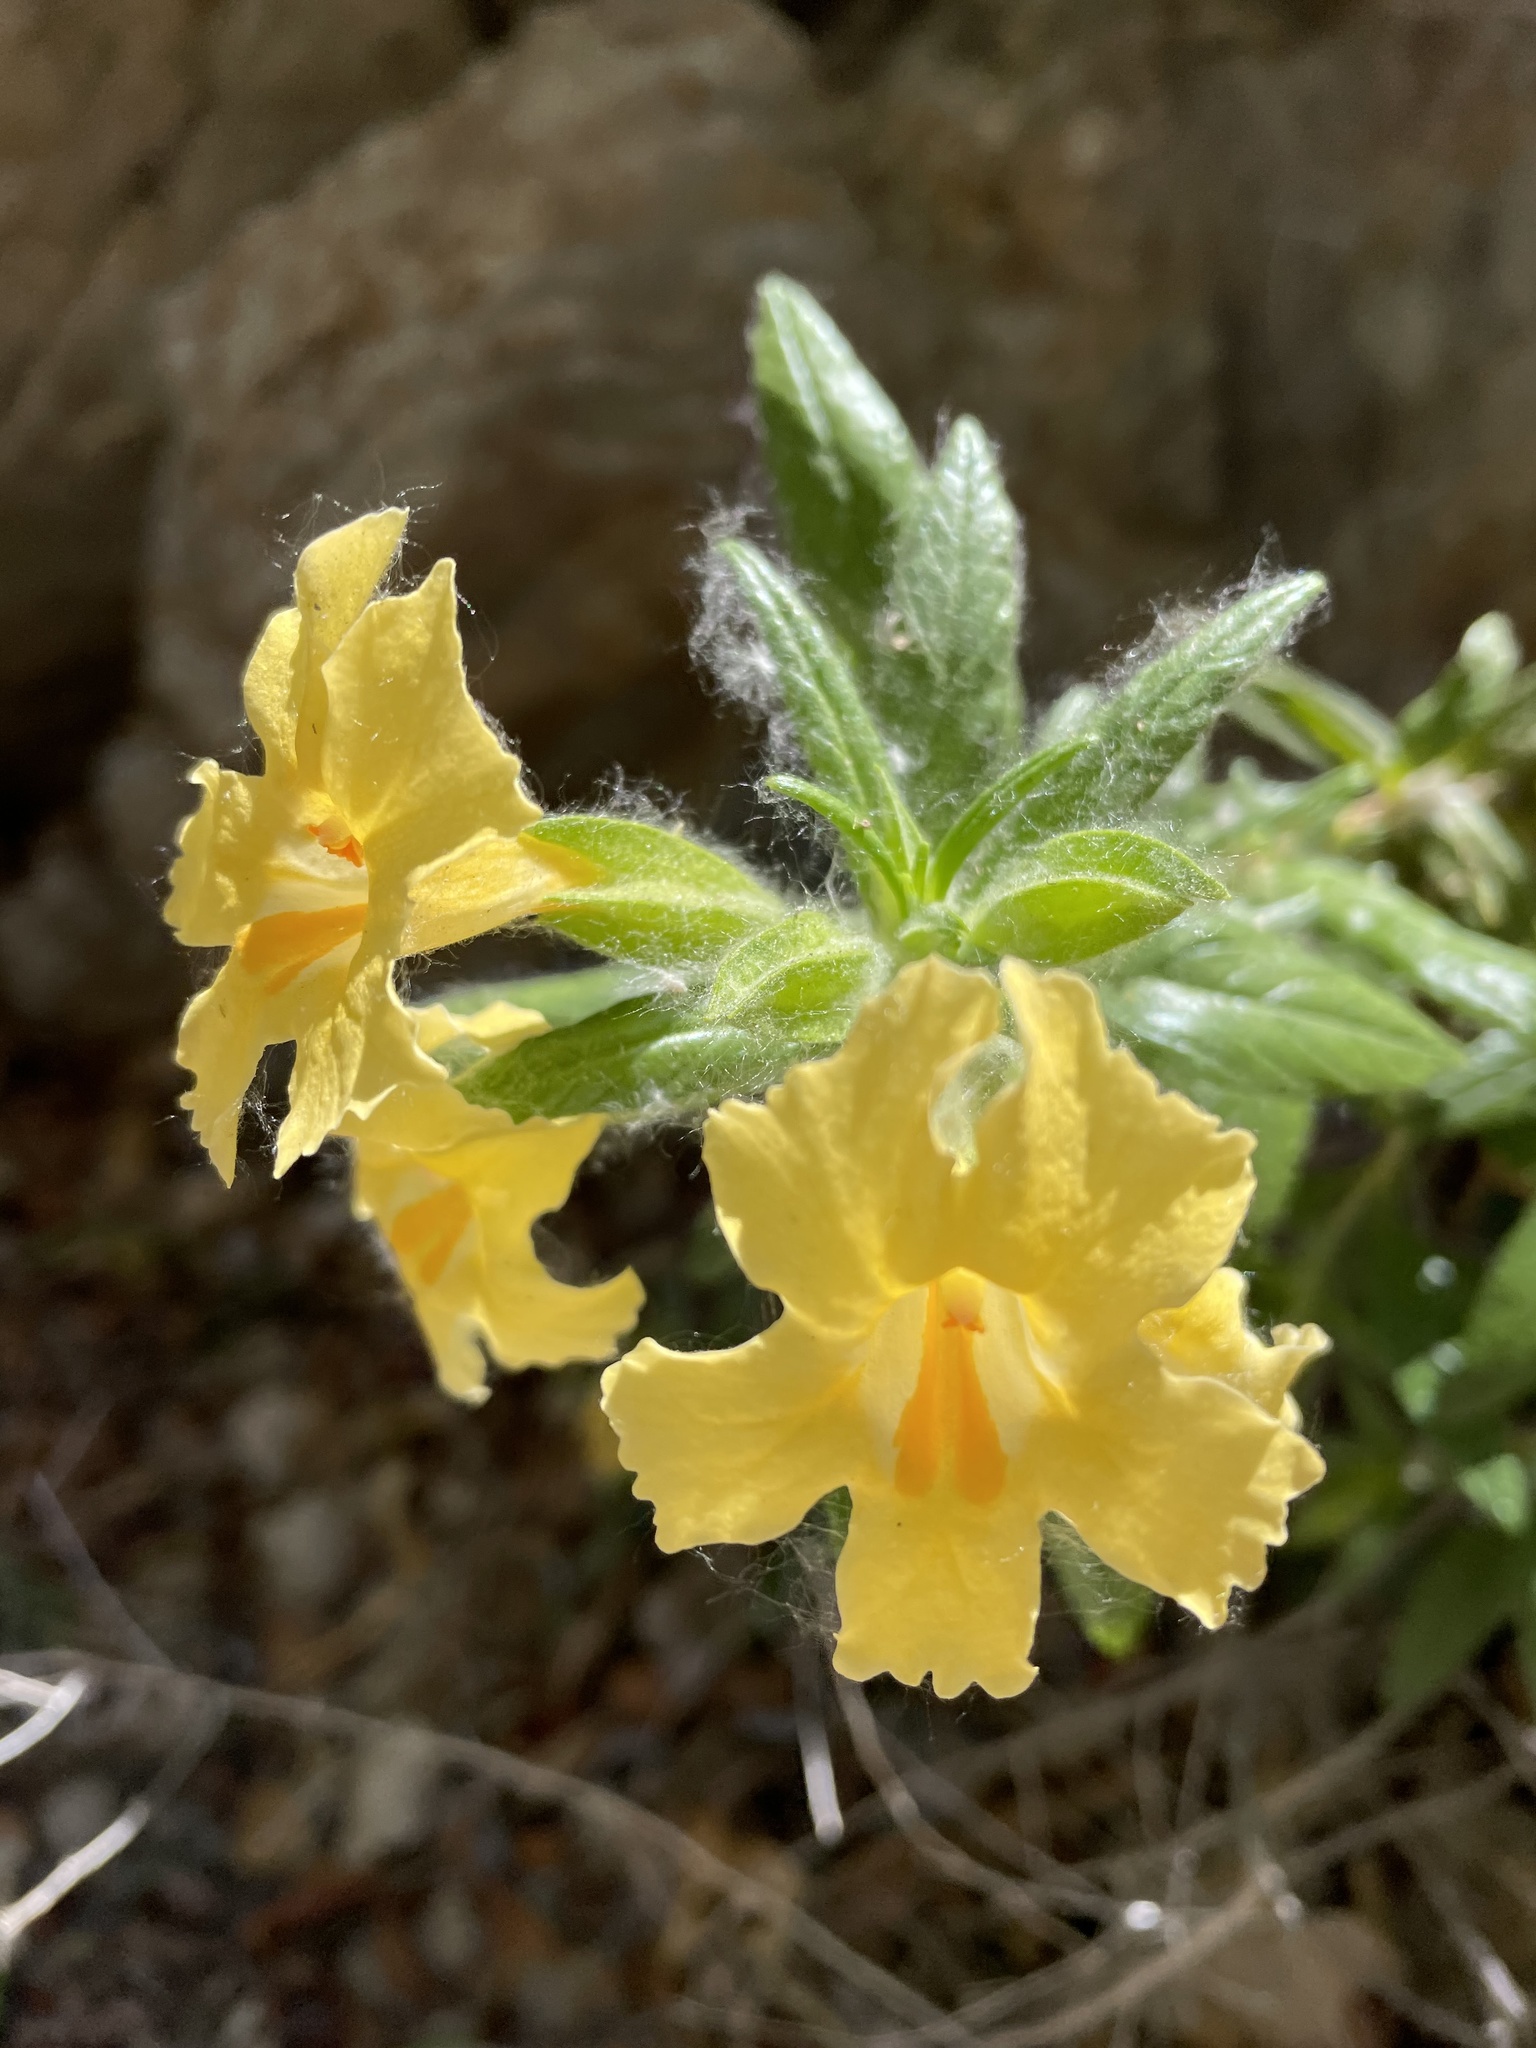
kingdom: Plantae
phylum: Tracheophyta
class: Magnoliopsida
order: Lamiales
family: Phrymaceae
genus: Diplacus
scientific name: Diplacus longiflorus
